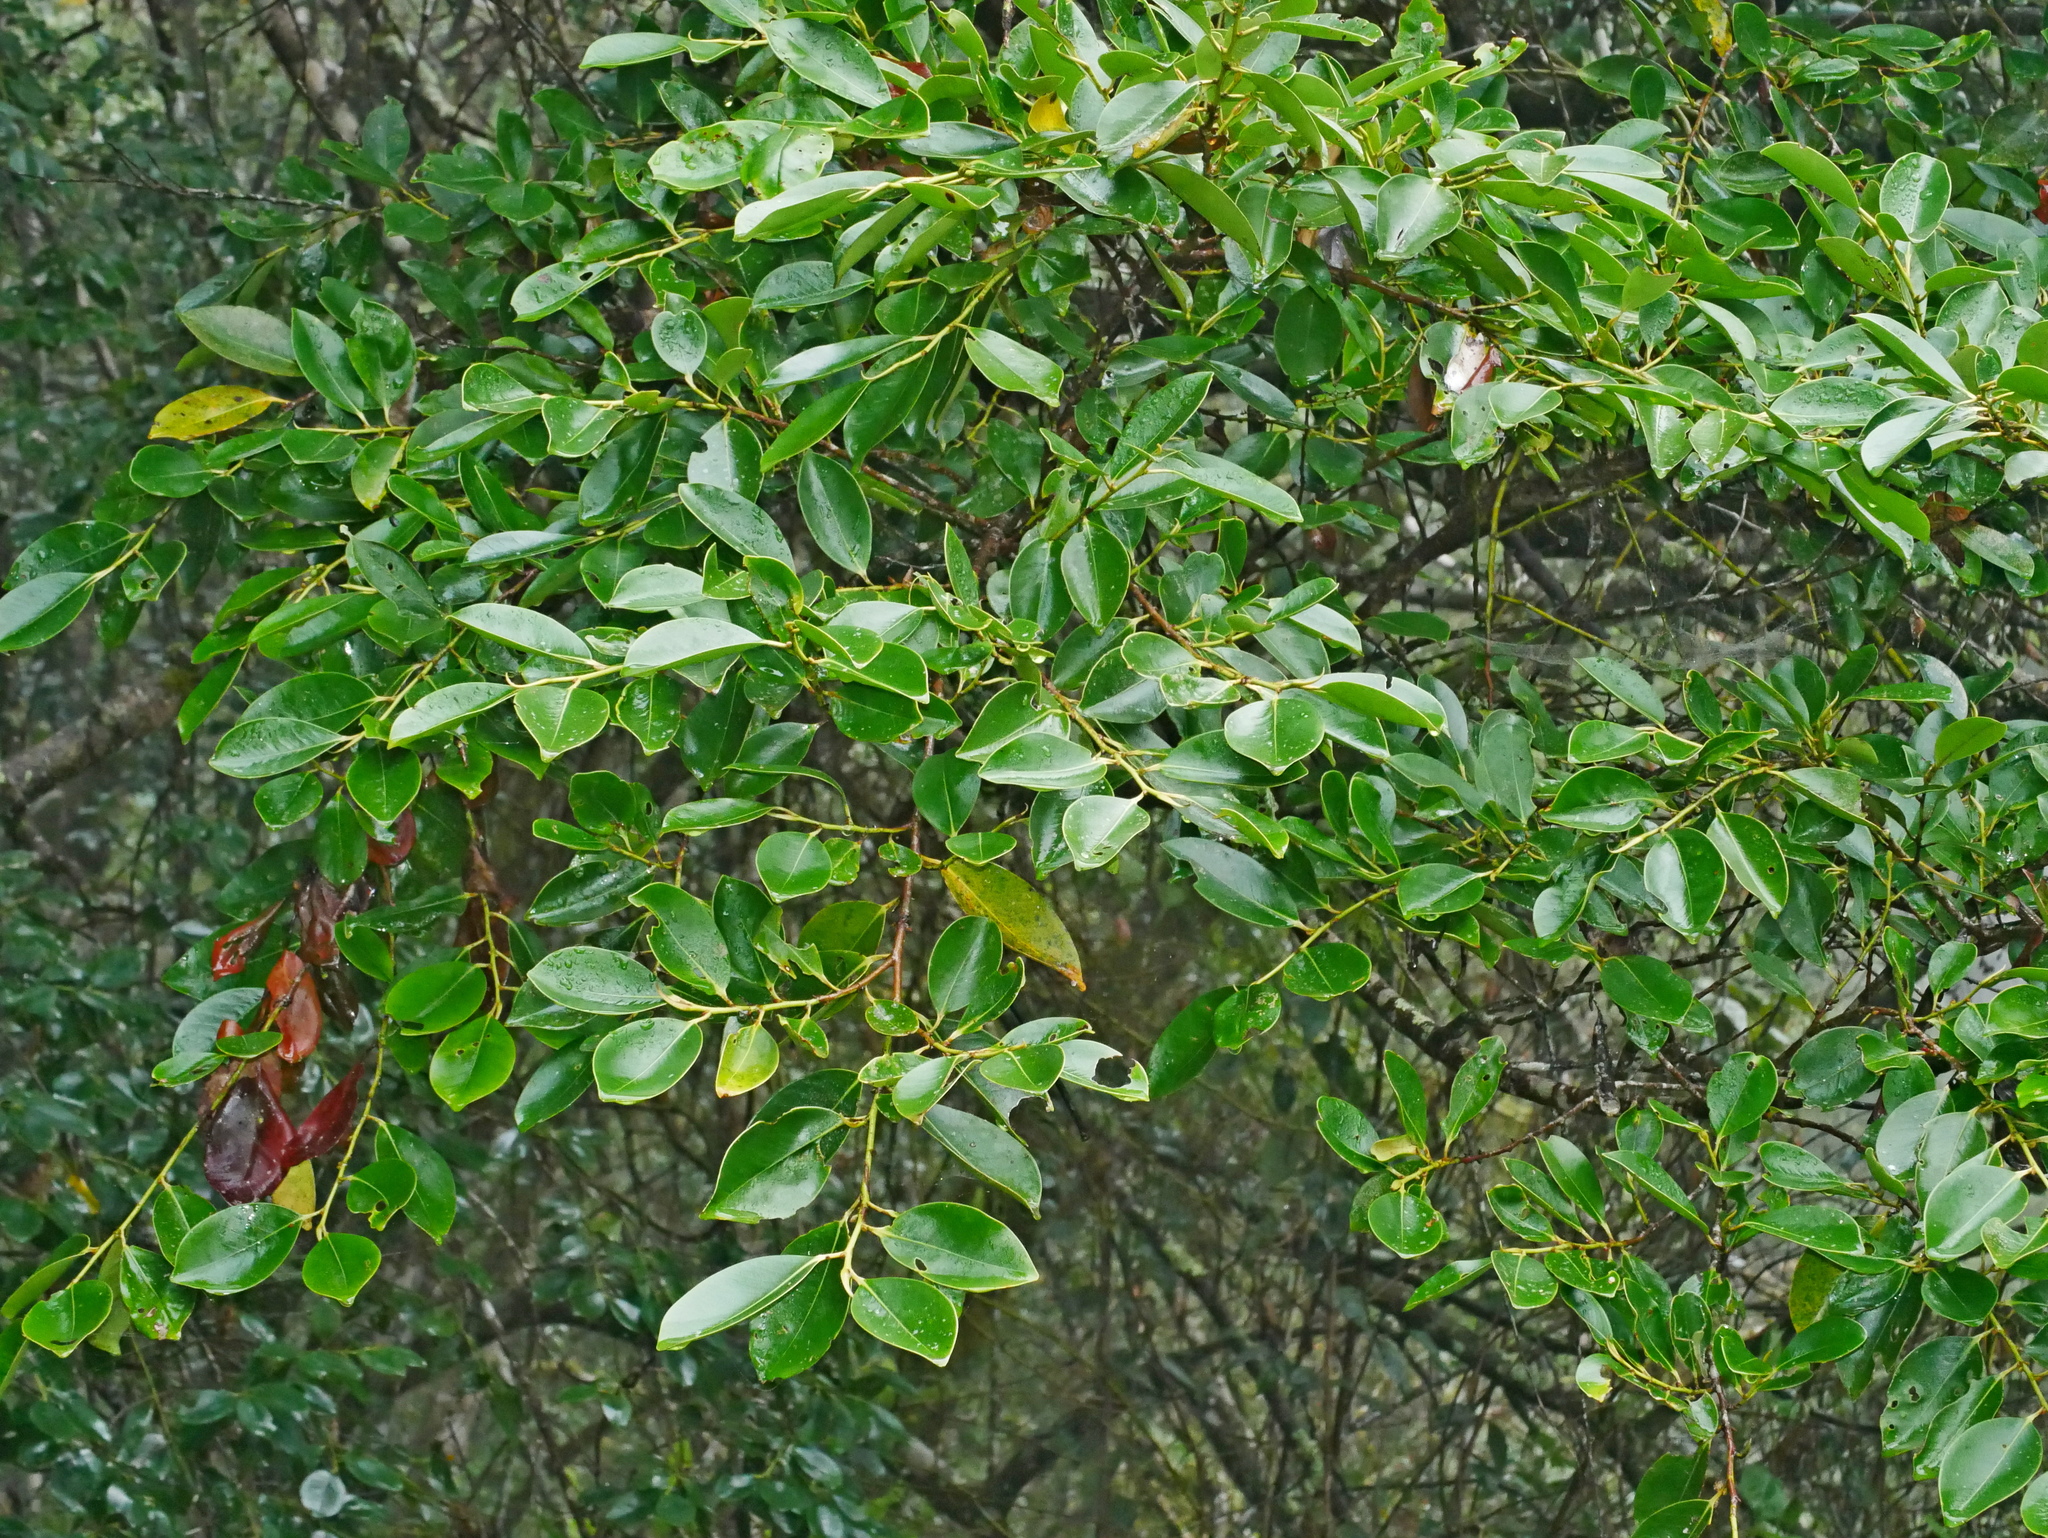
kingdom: Plantae
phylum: Tracheophyta
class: Magnoliopsida
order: Ericales
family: Pentaphylacaceae
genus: Cleyera
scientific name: Cleyera japonica
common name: Sakaki
